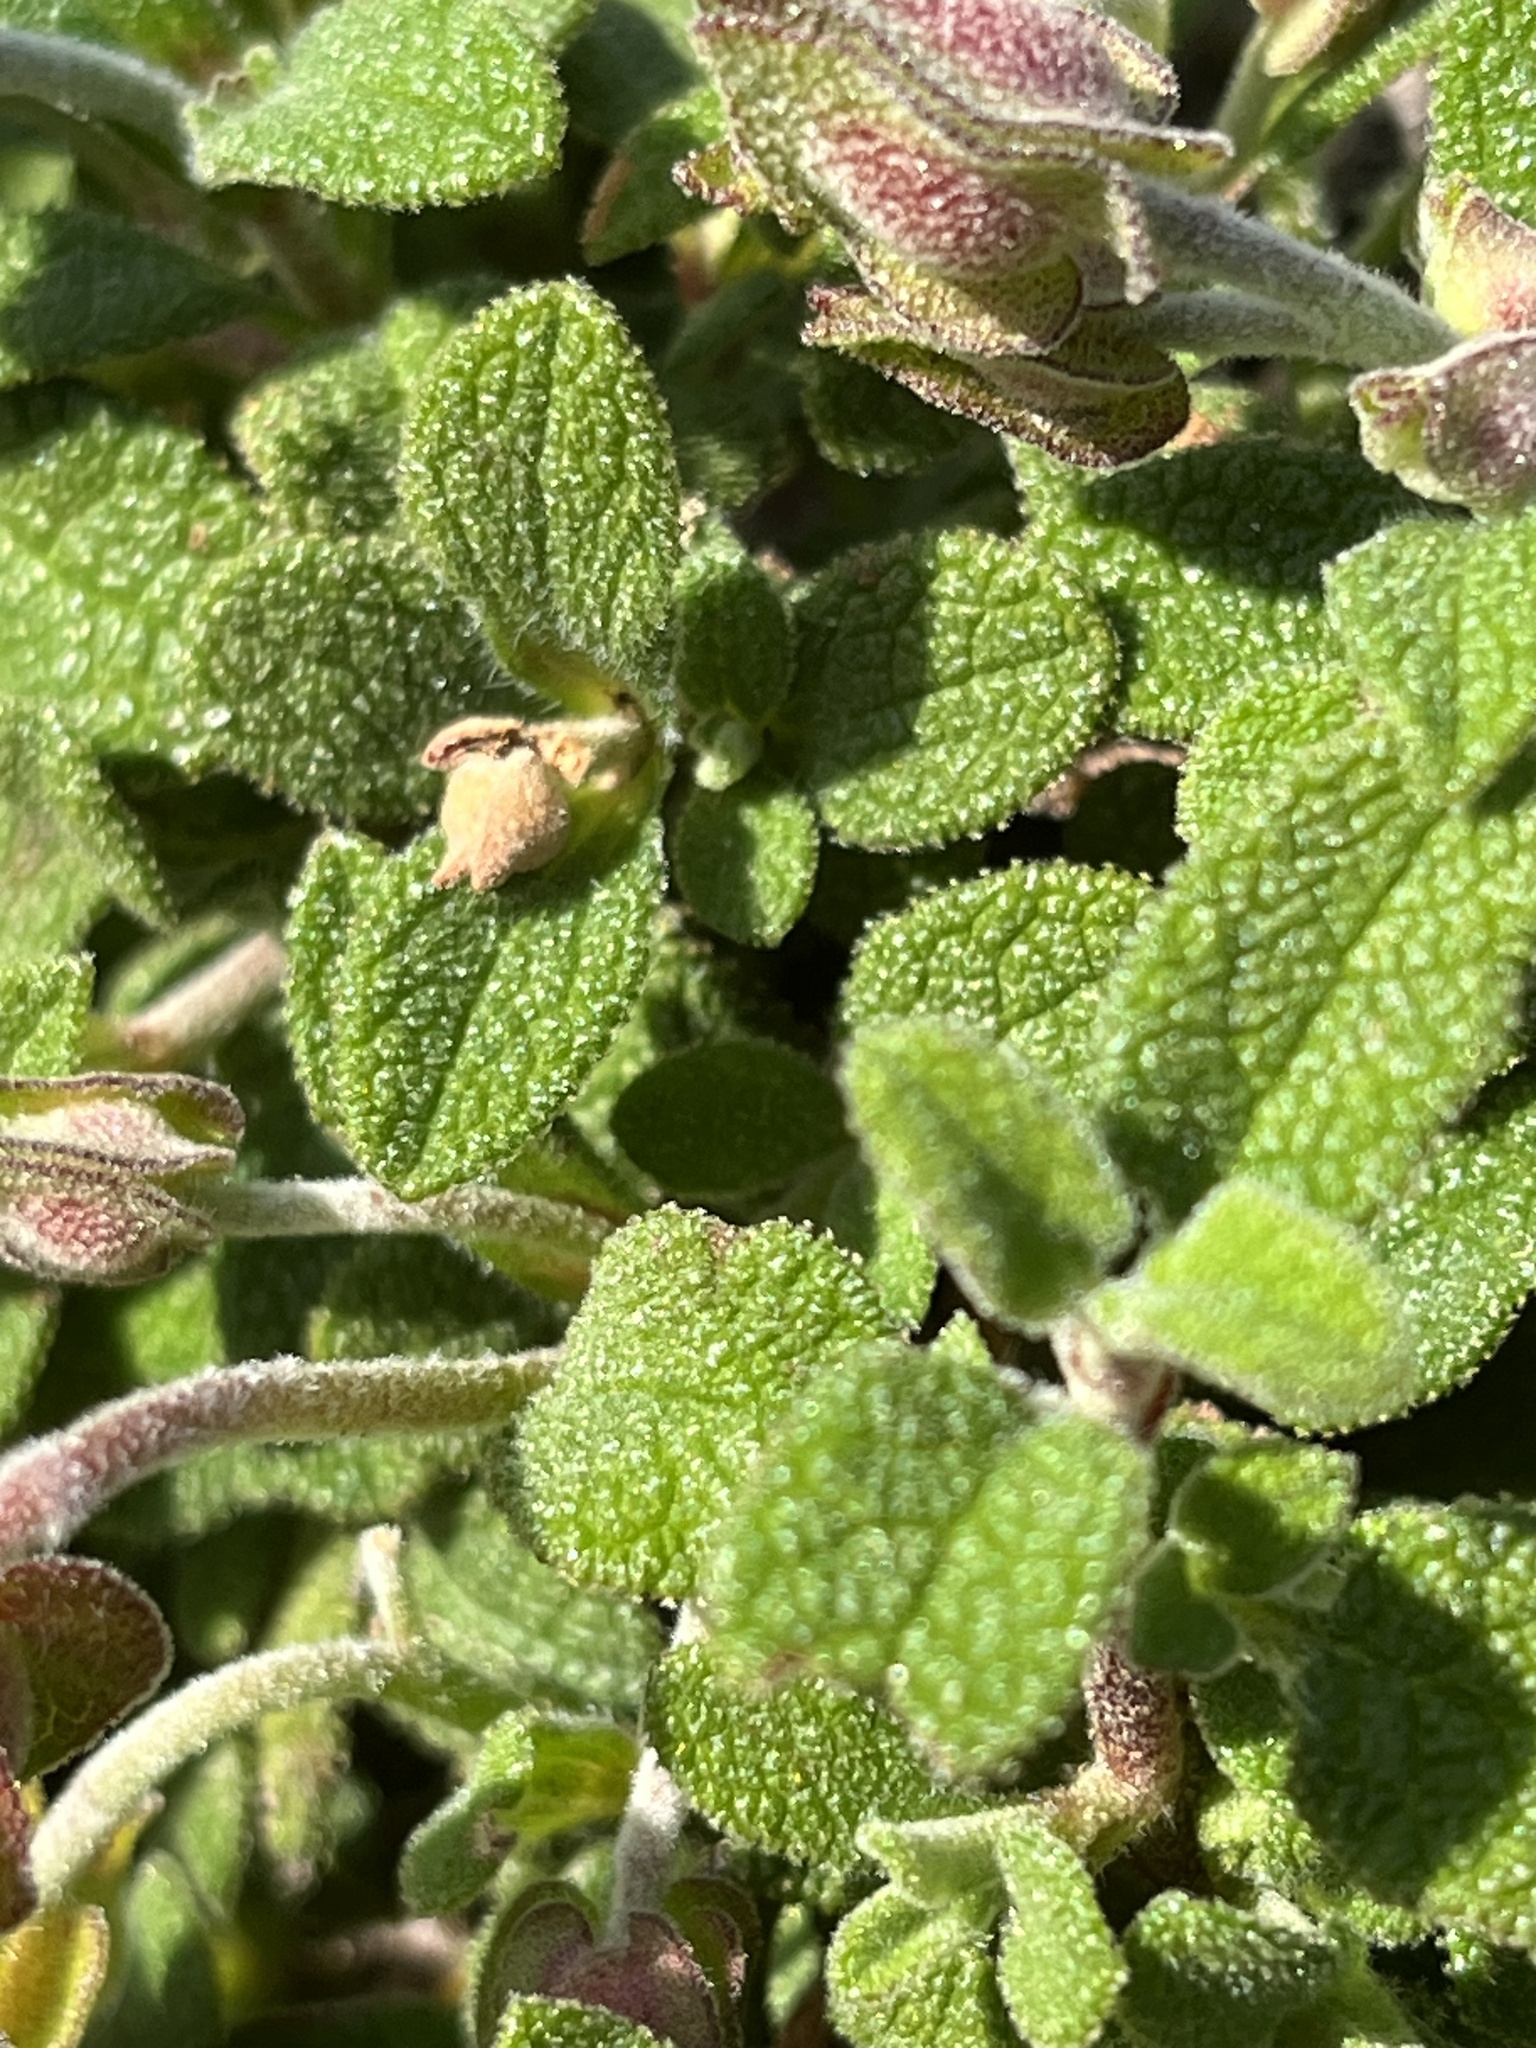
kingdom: Plantae
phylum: Tracheophyta
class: Magnoliopsida
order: Malvales
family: Cistaceae
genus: Cistus
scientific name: Cistus salviifolius
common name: Salvia cistus
